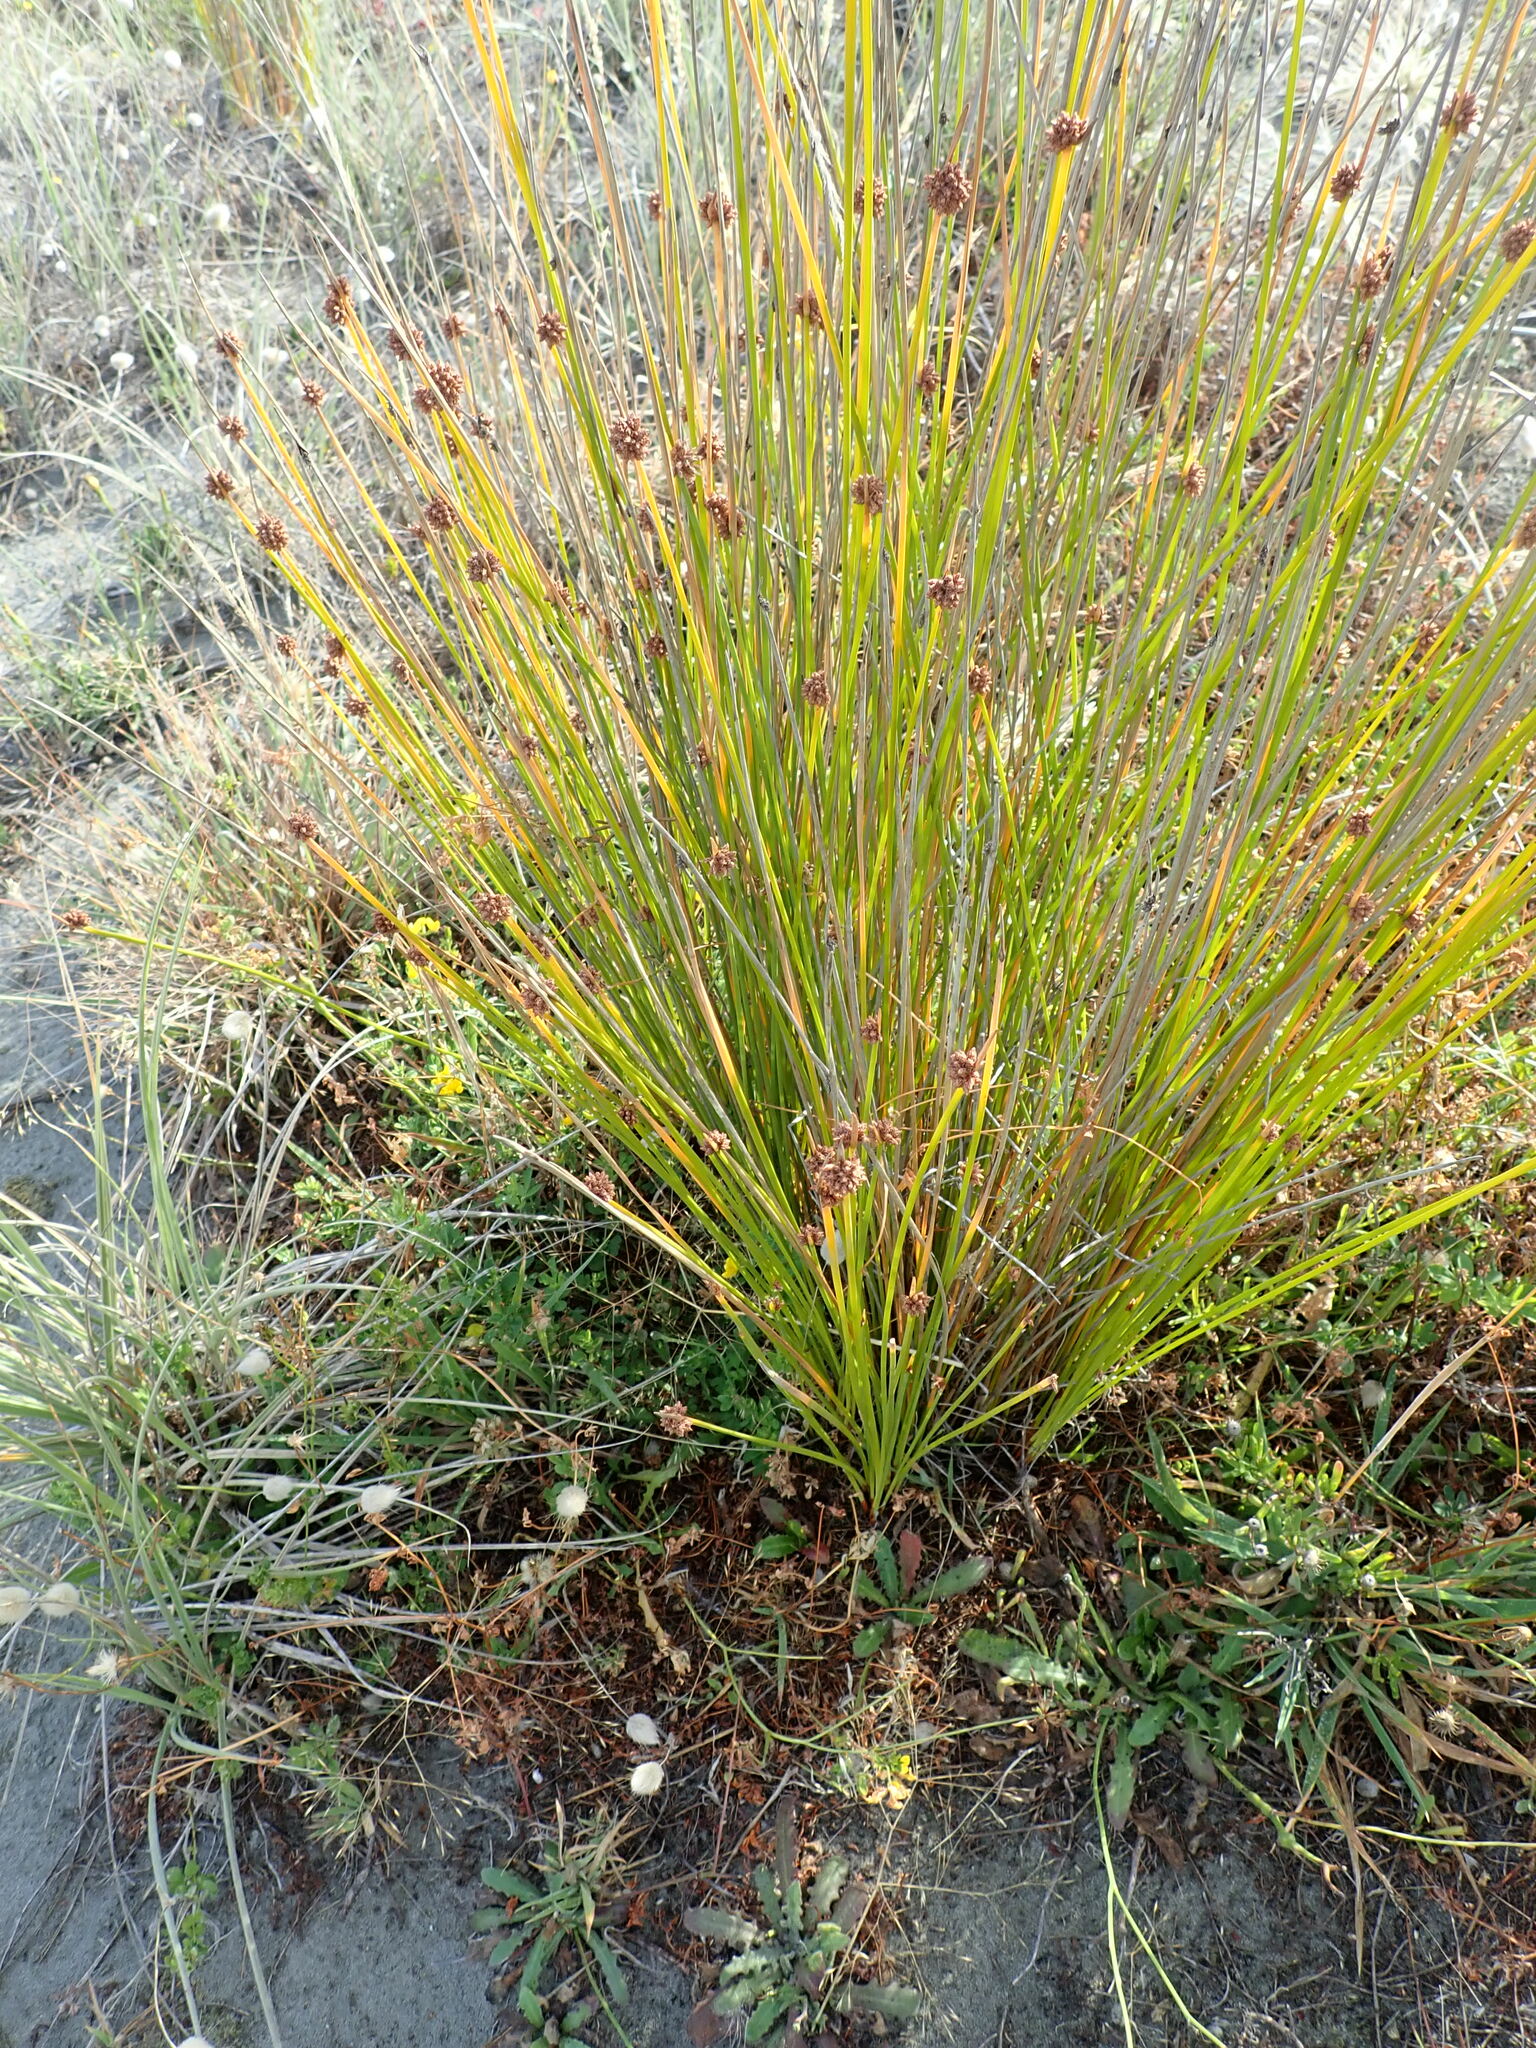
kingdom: Plantae
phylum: Tracheophyta
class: Liliopsida
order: Poales
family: Cyperaceae
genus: Ficinia
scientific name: Ficinia nodosa
